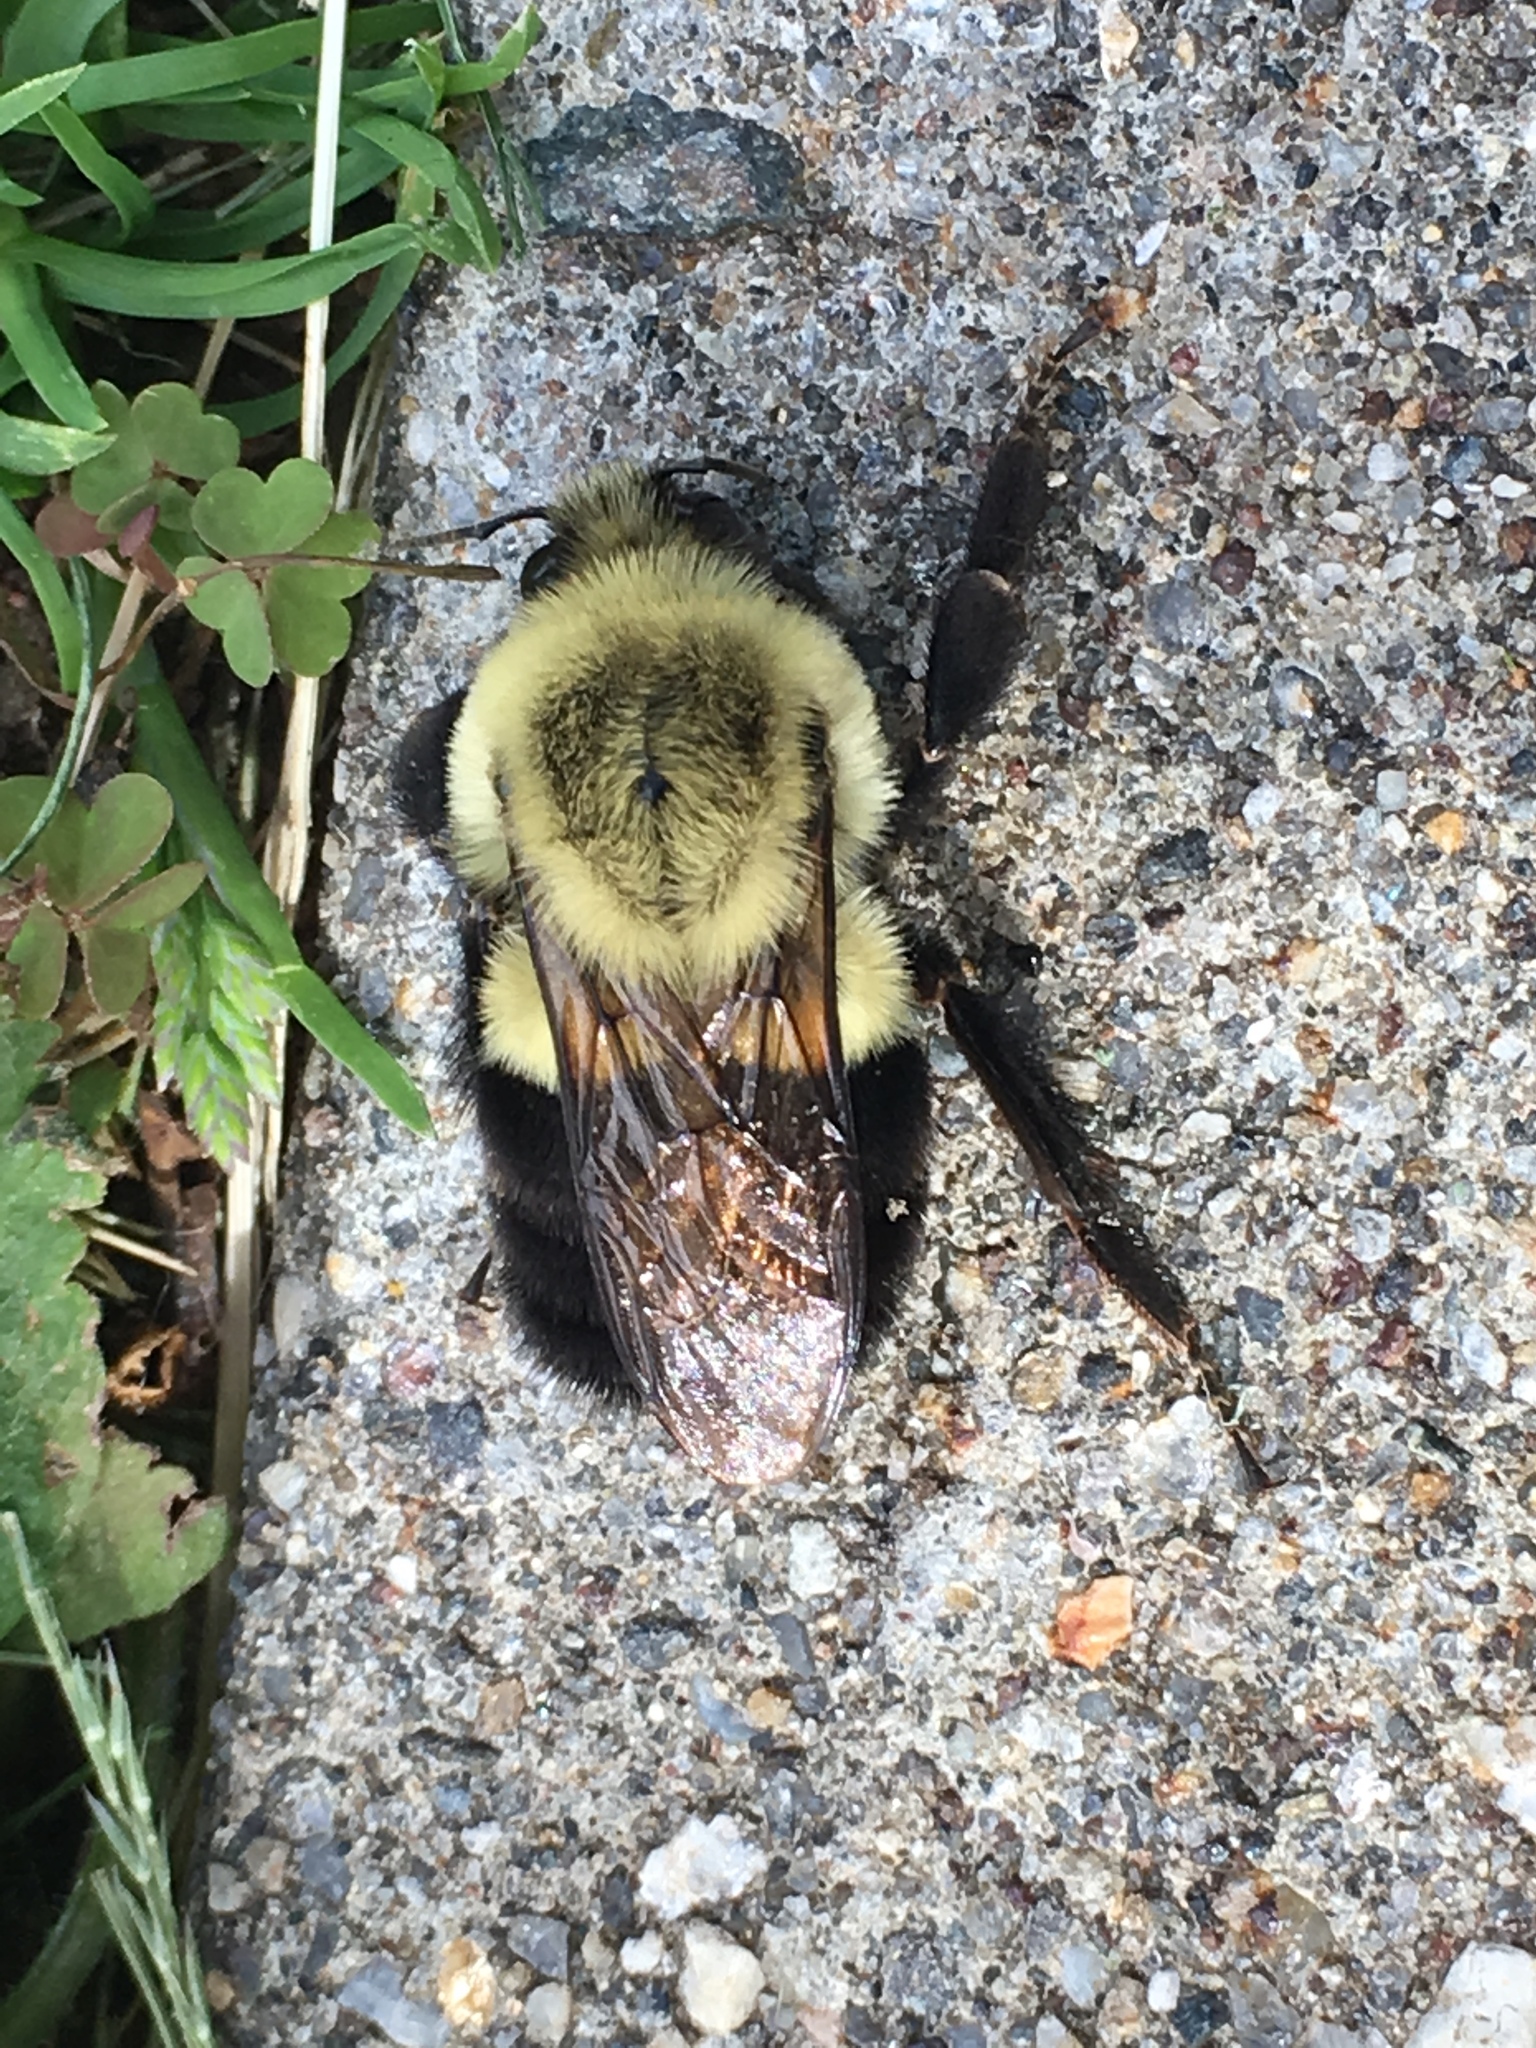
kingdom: Animalia
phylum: Arthropoda
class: Insecta
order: Hymenoptera
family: Apidae
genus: Bombus
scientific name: Bombus impatiens
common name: Common eastern bumble bee
